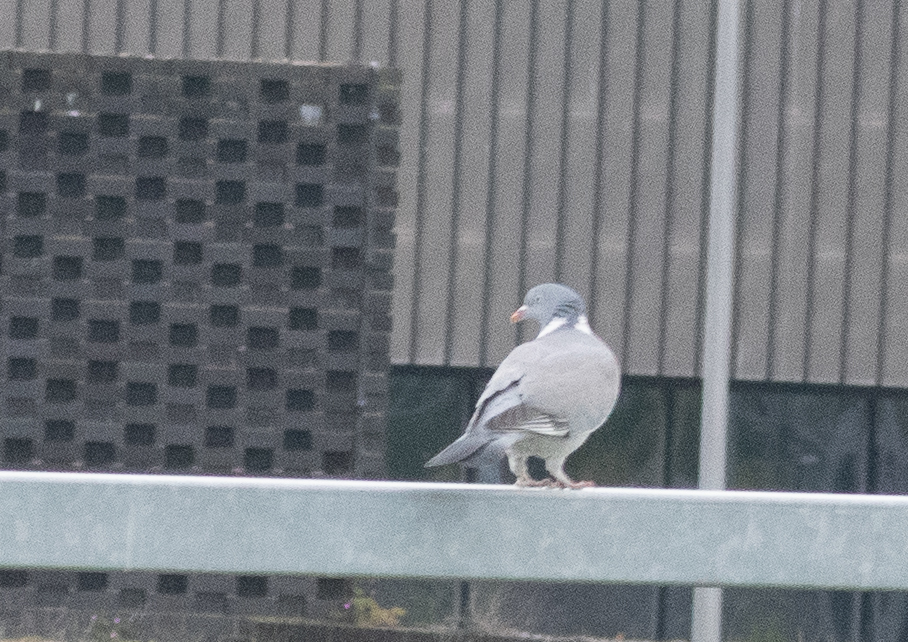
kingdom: Animalia
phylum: Chordata
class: Aves
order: Columbiformes
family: Columbidae
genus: Columba
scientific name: Columba palumbus
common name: Common wood pigeon
